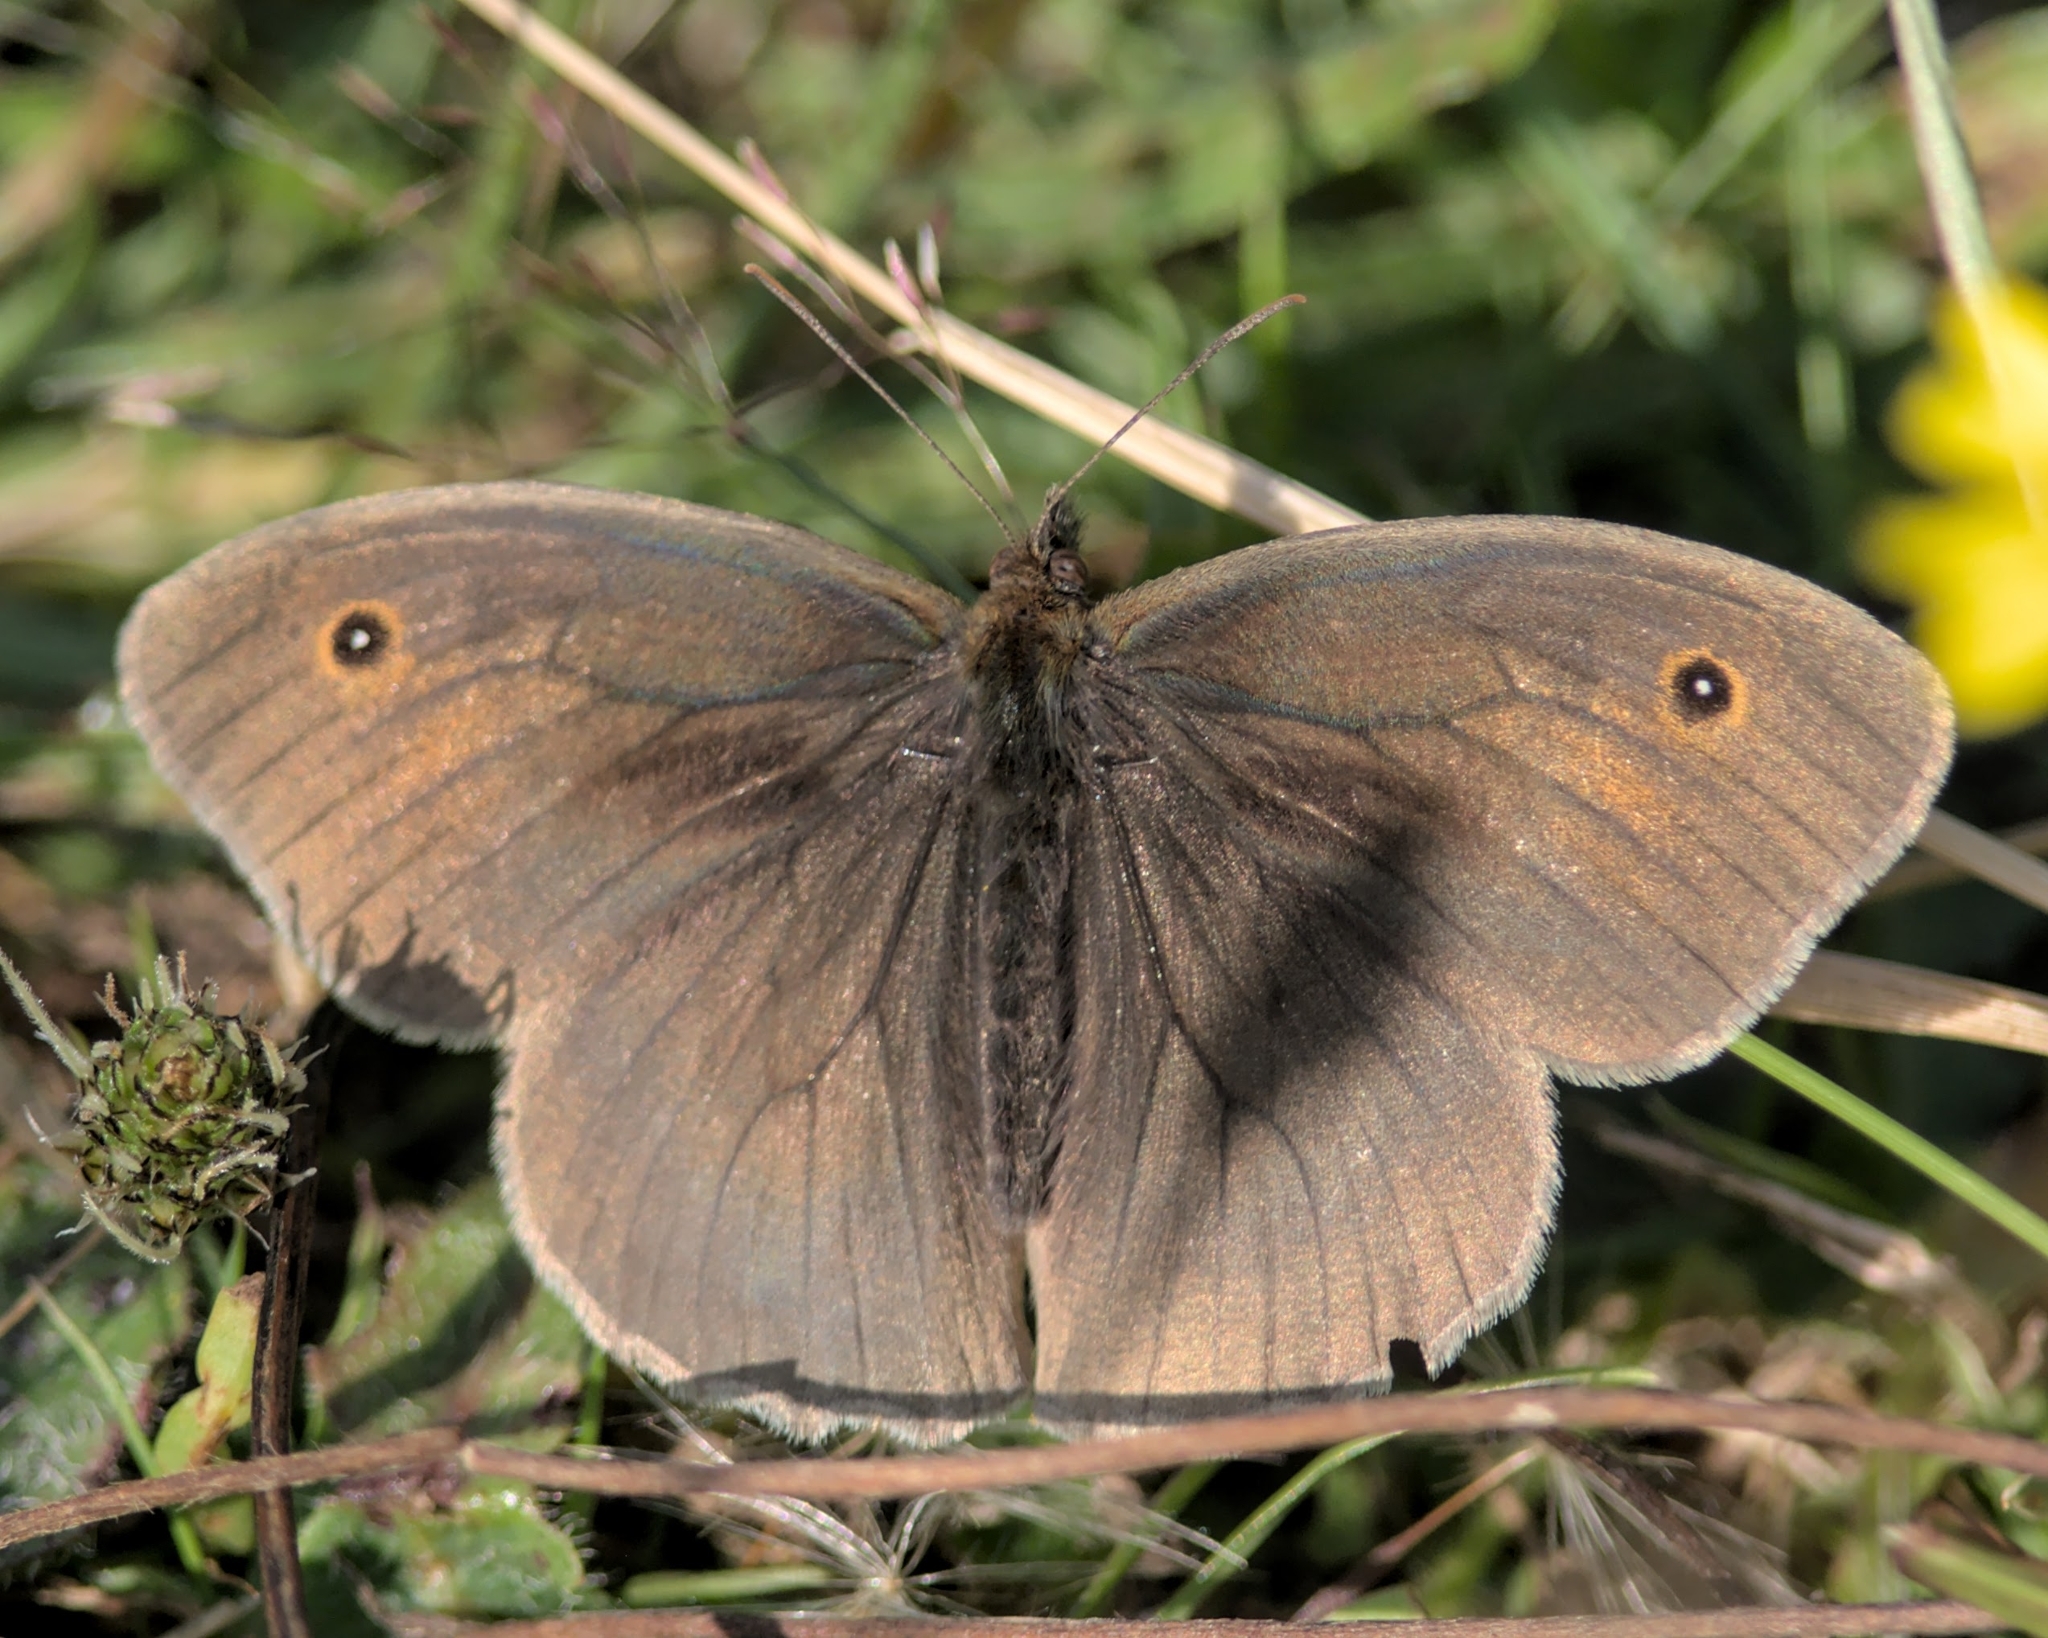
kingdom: Animalia
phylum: Arthropoda
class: Insecta
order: Lepidoptera
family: Nymphalidae
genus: Maniola
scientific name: Maniola jurtina
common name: Meadow brown
